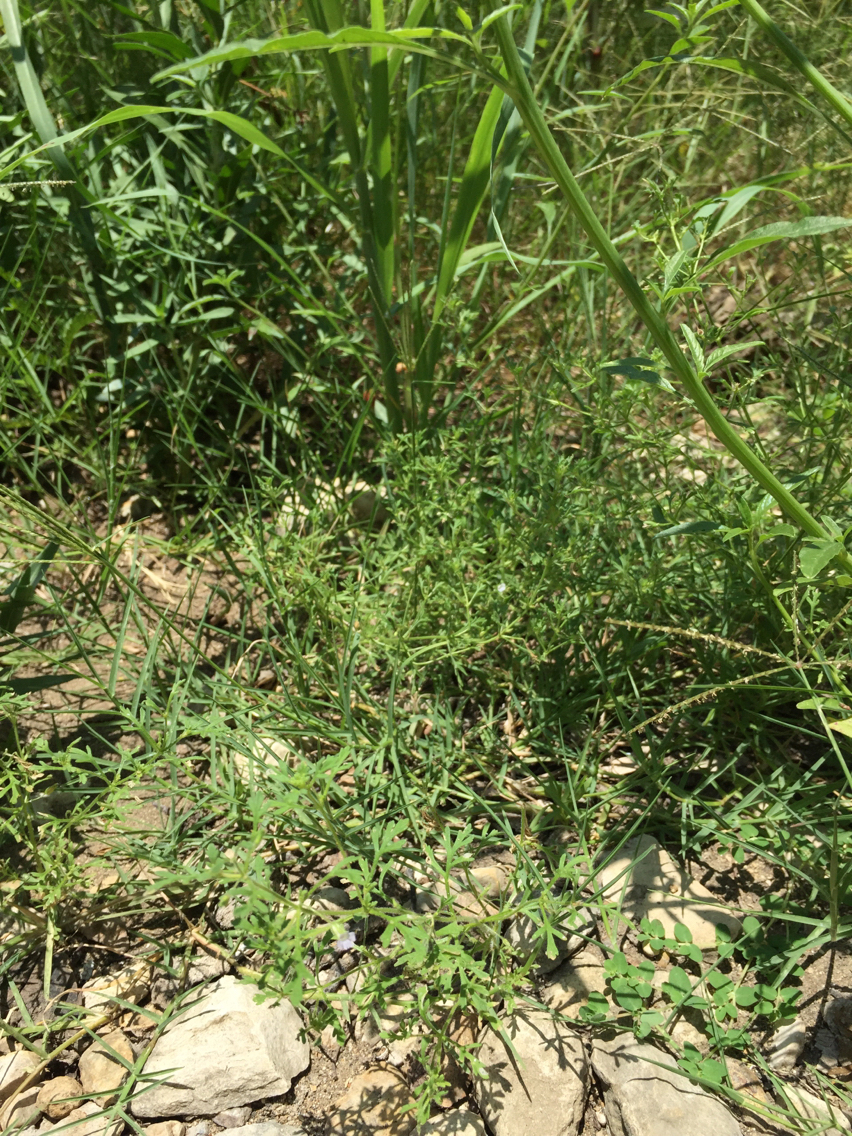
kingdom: Plantae
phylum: Tracheophyta
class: Magnoliopsida
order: Lamiales
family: Plantaginaceae
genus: Leucospora
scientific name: Leucospora multifida
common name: Narrow-leaf paleseed
